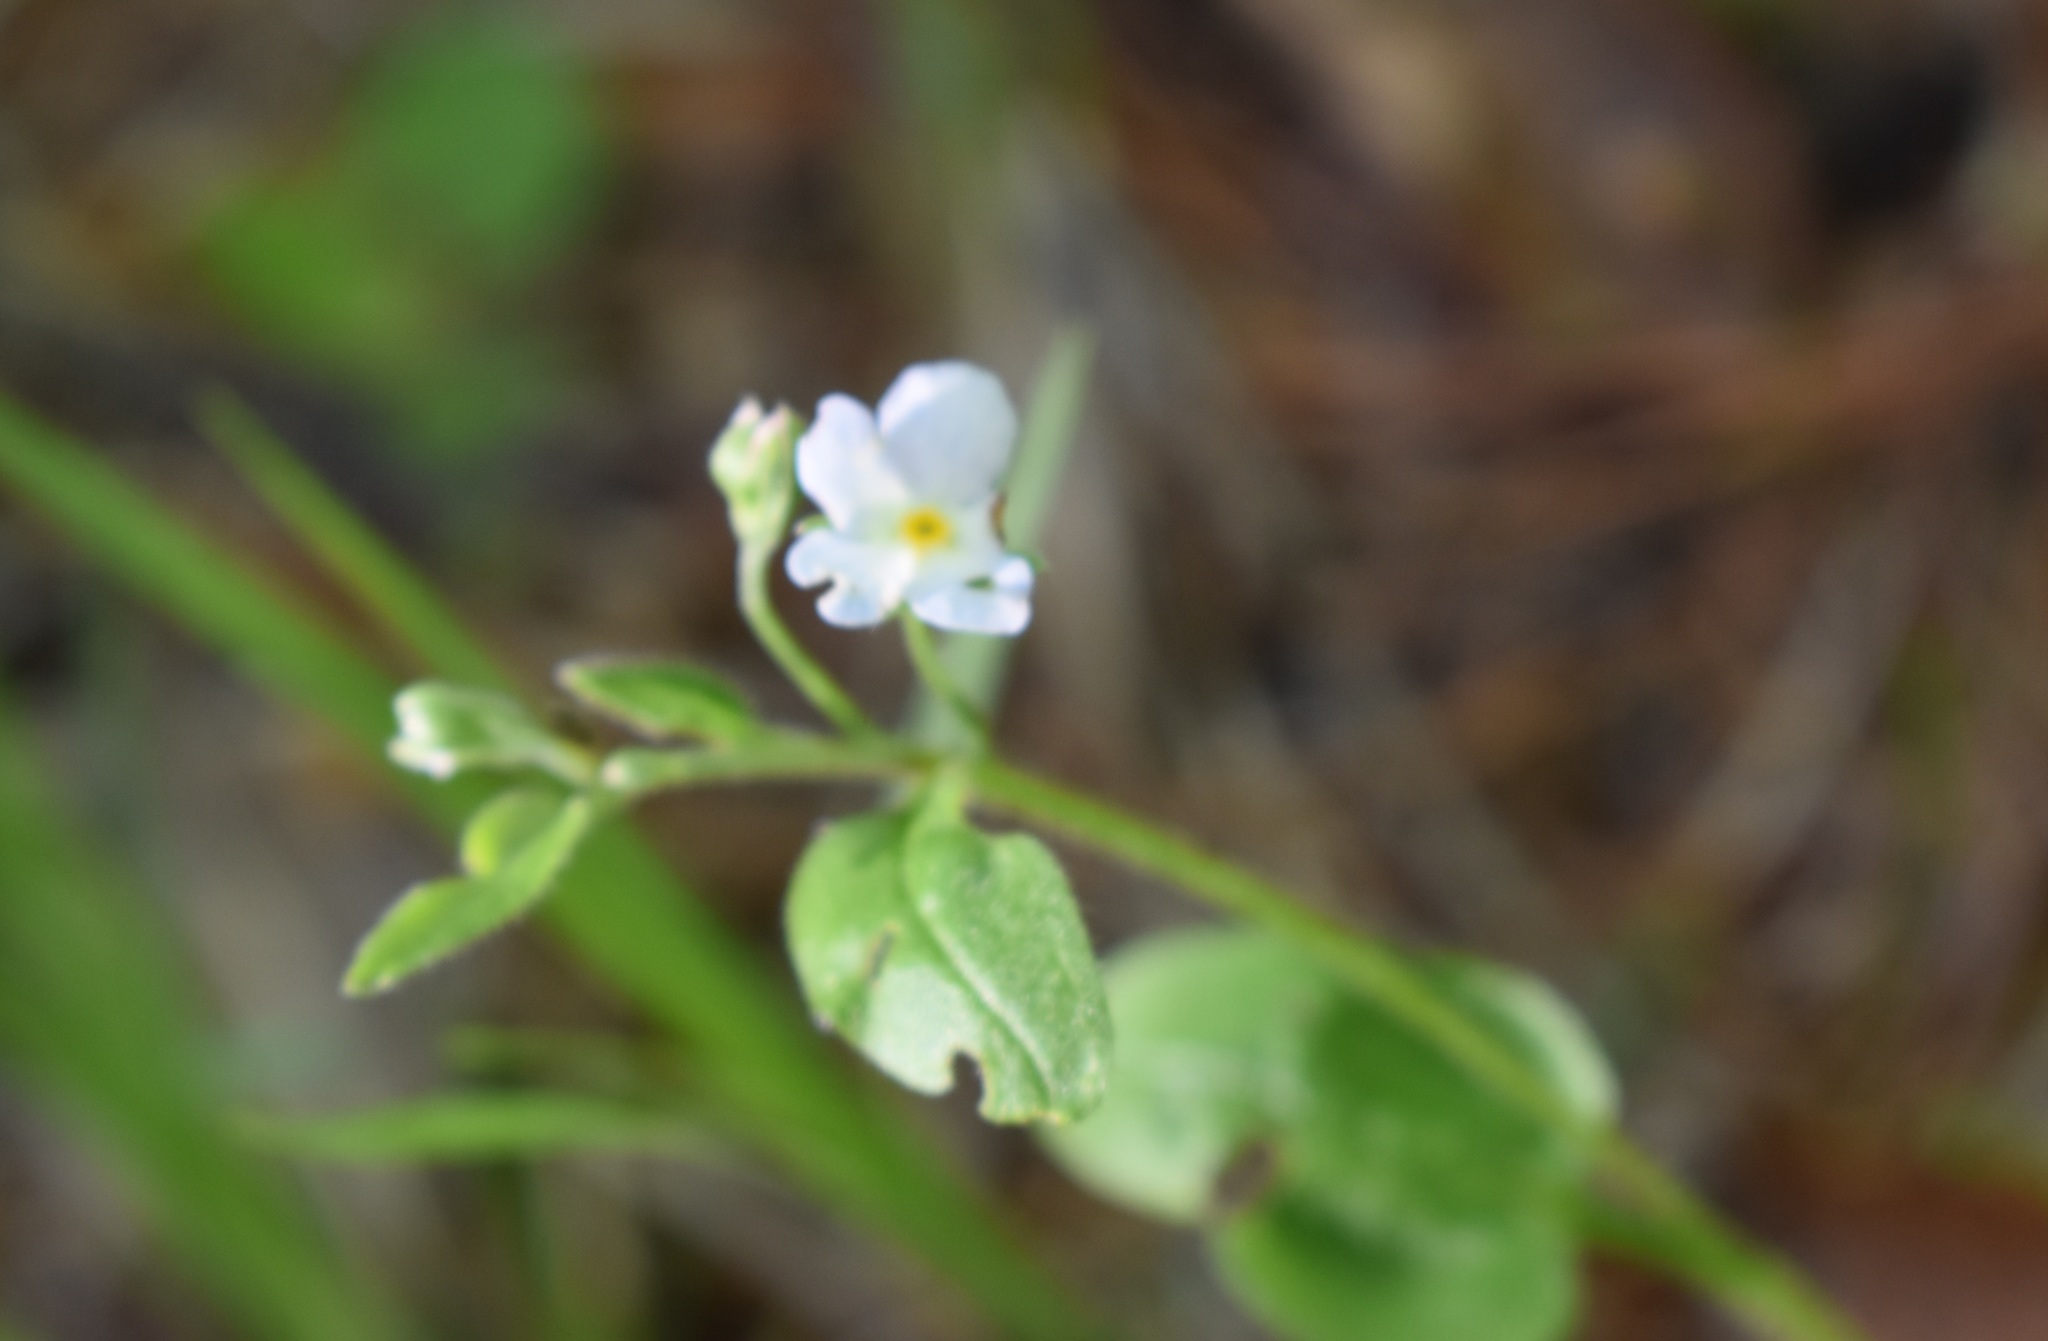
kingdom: Plantae
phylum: Tracheophyta
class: Magnoliopsida
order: Boraginales
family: Boraginaceae
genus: Trigonotis
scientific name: Trigonotis radicans
